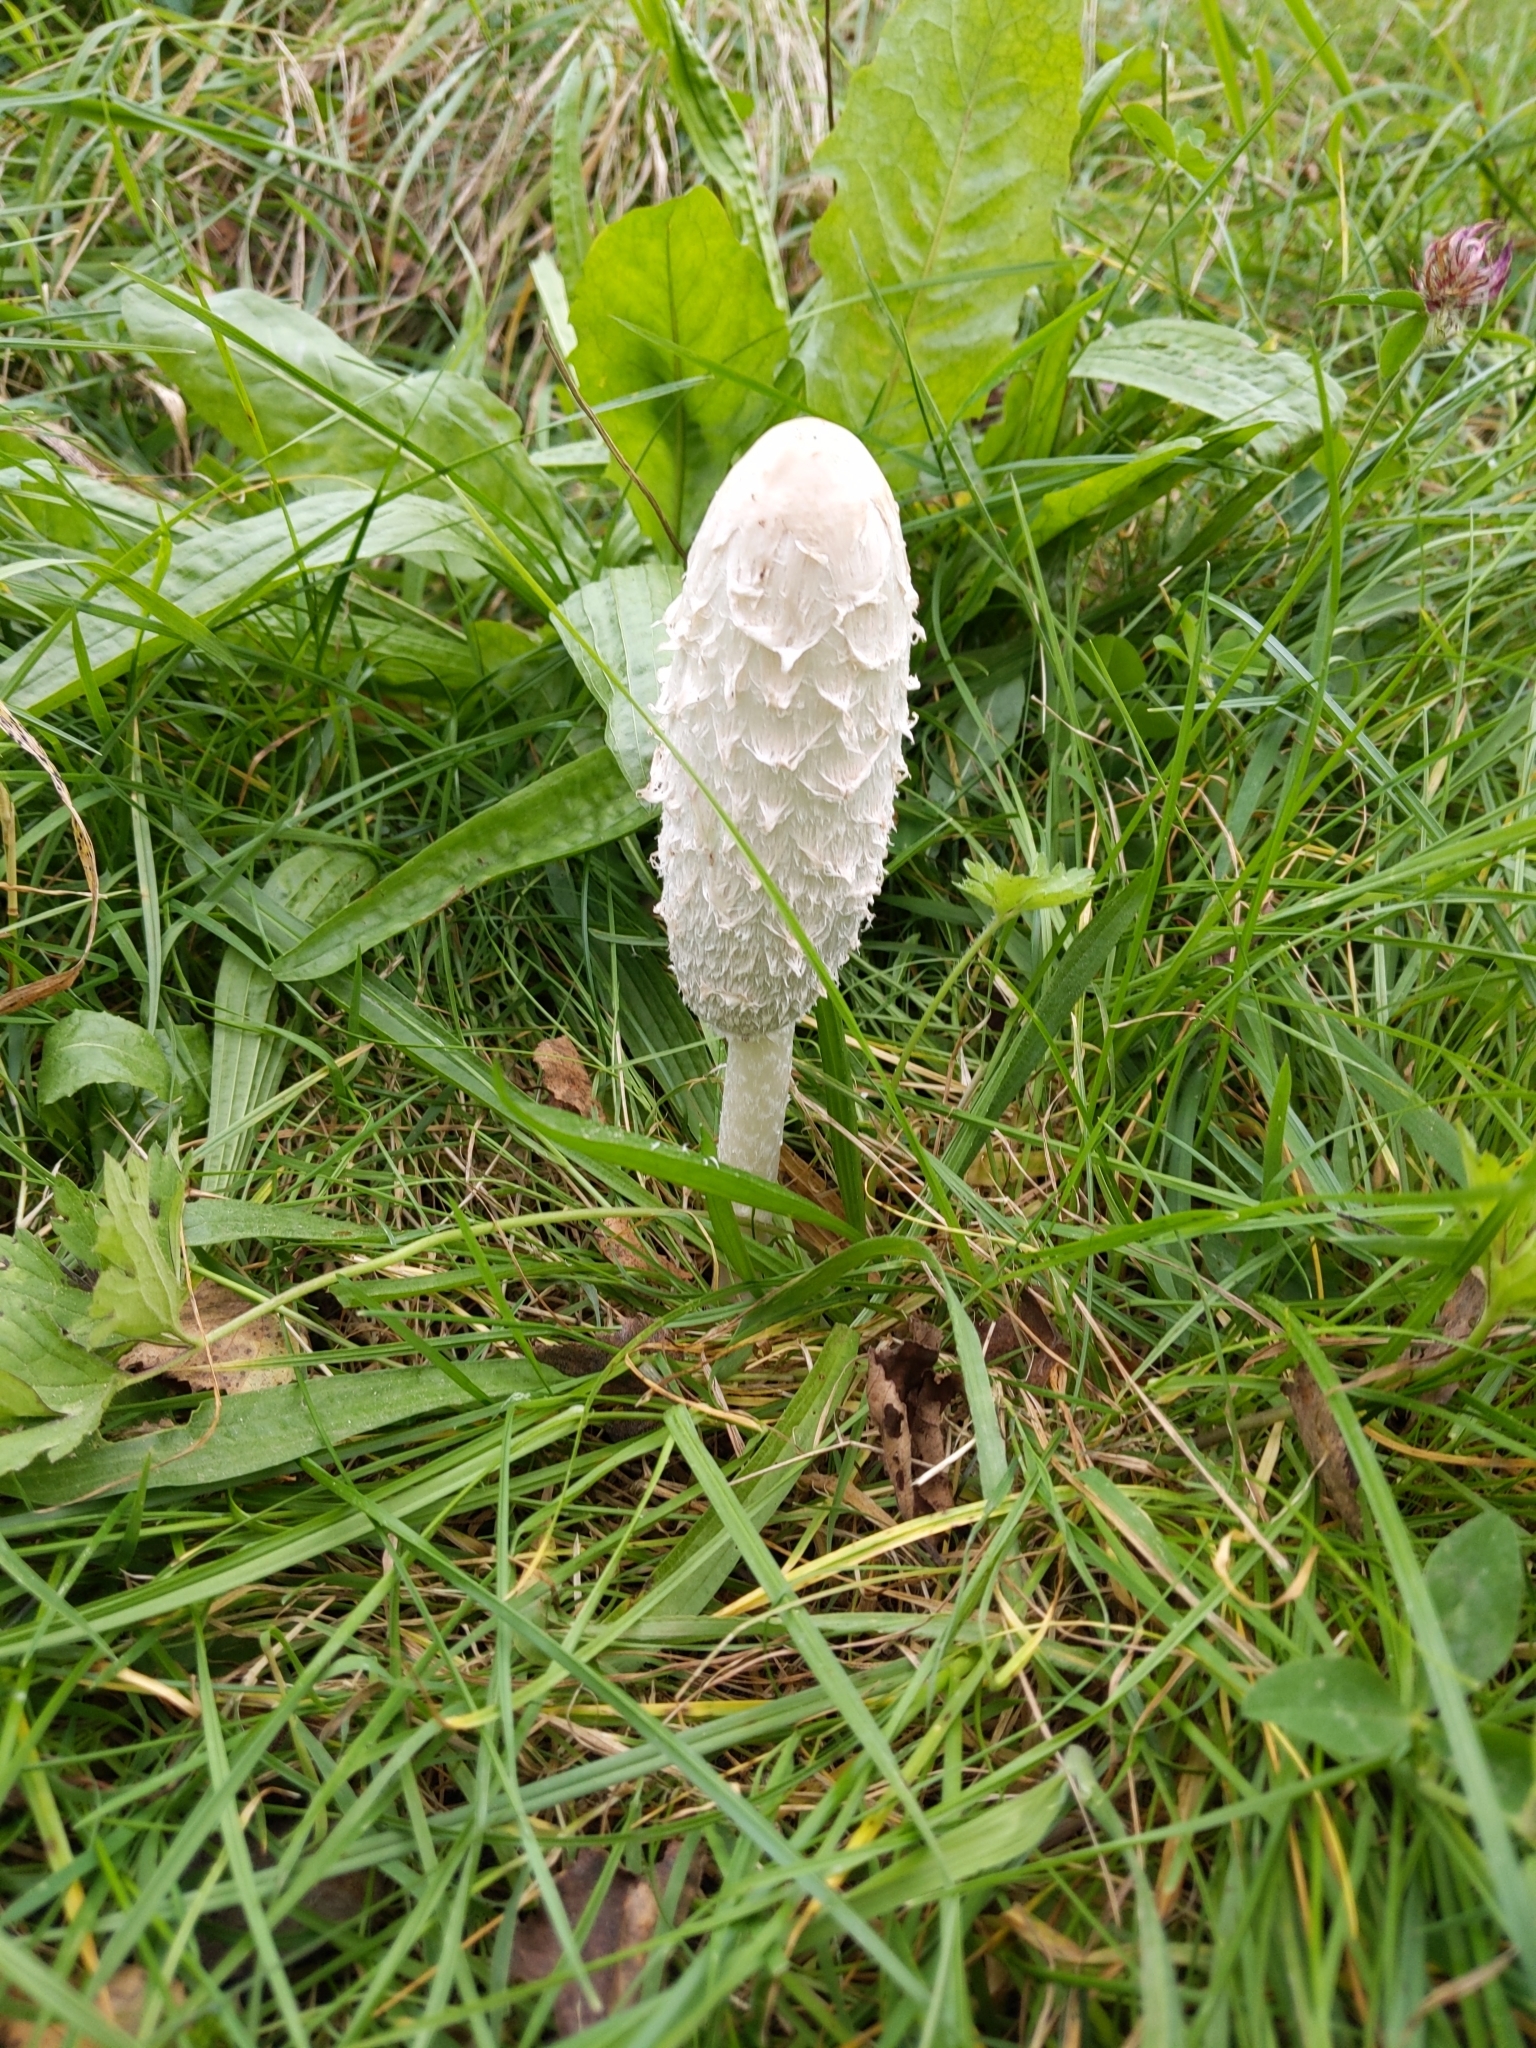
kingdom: Fungi
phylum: Basidiomycota
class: Agaricomycetes
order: Agaricales
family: Agaricaceae
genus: Coprinus
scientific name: Coprinus comatus
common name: Lawyer's wig
